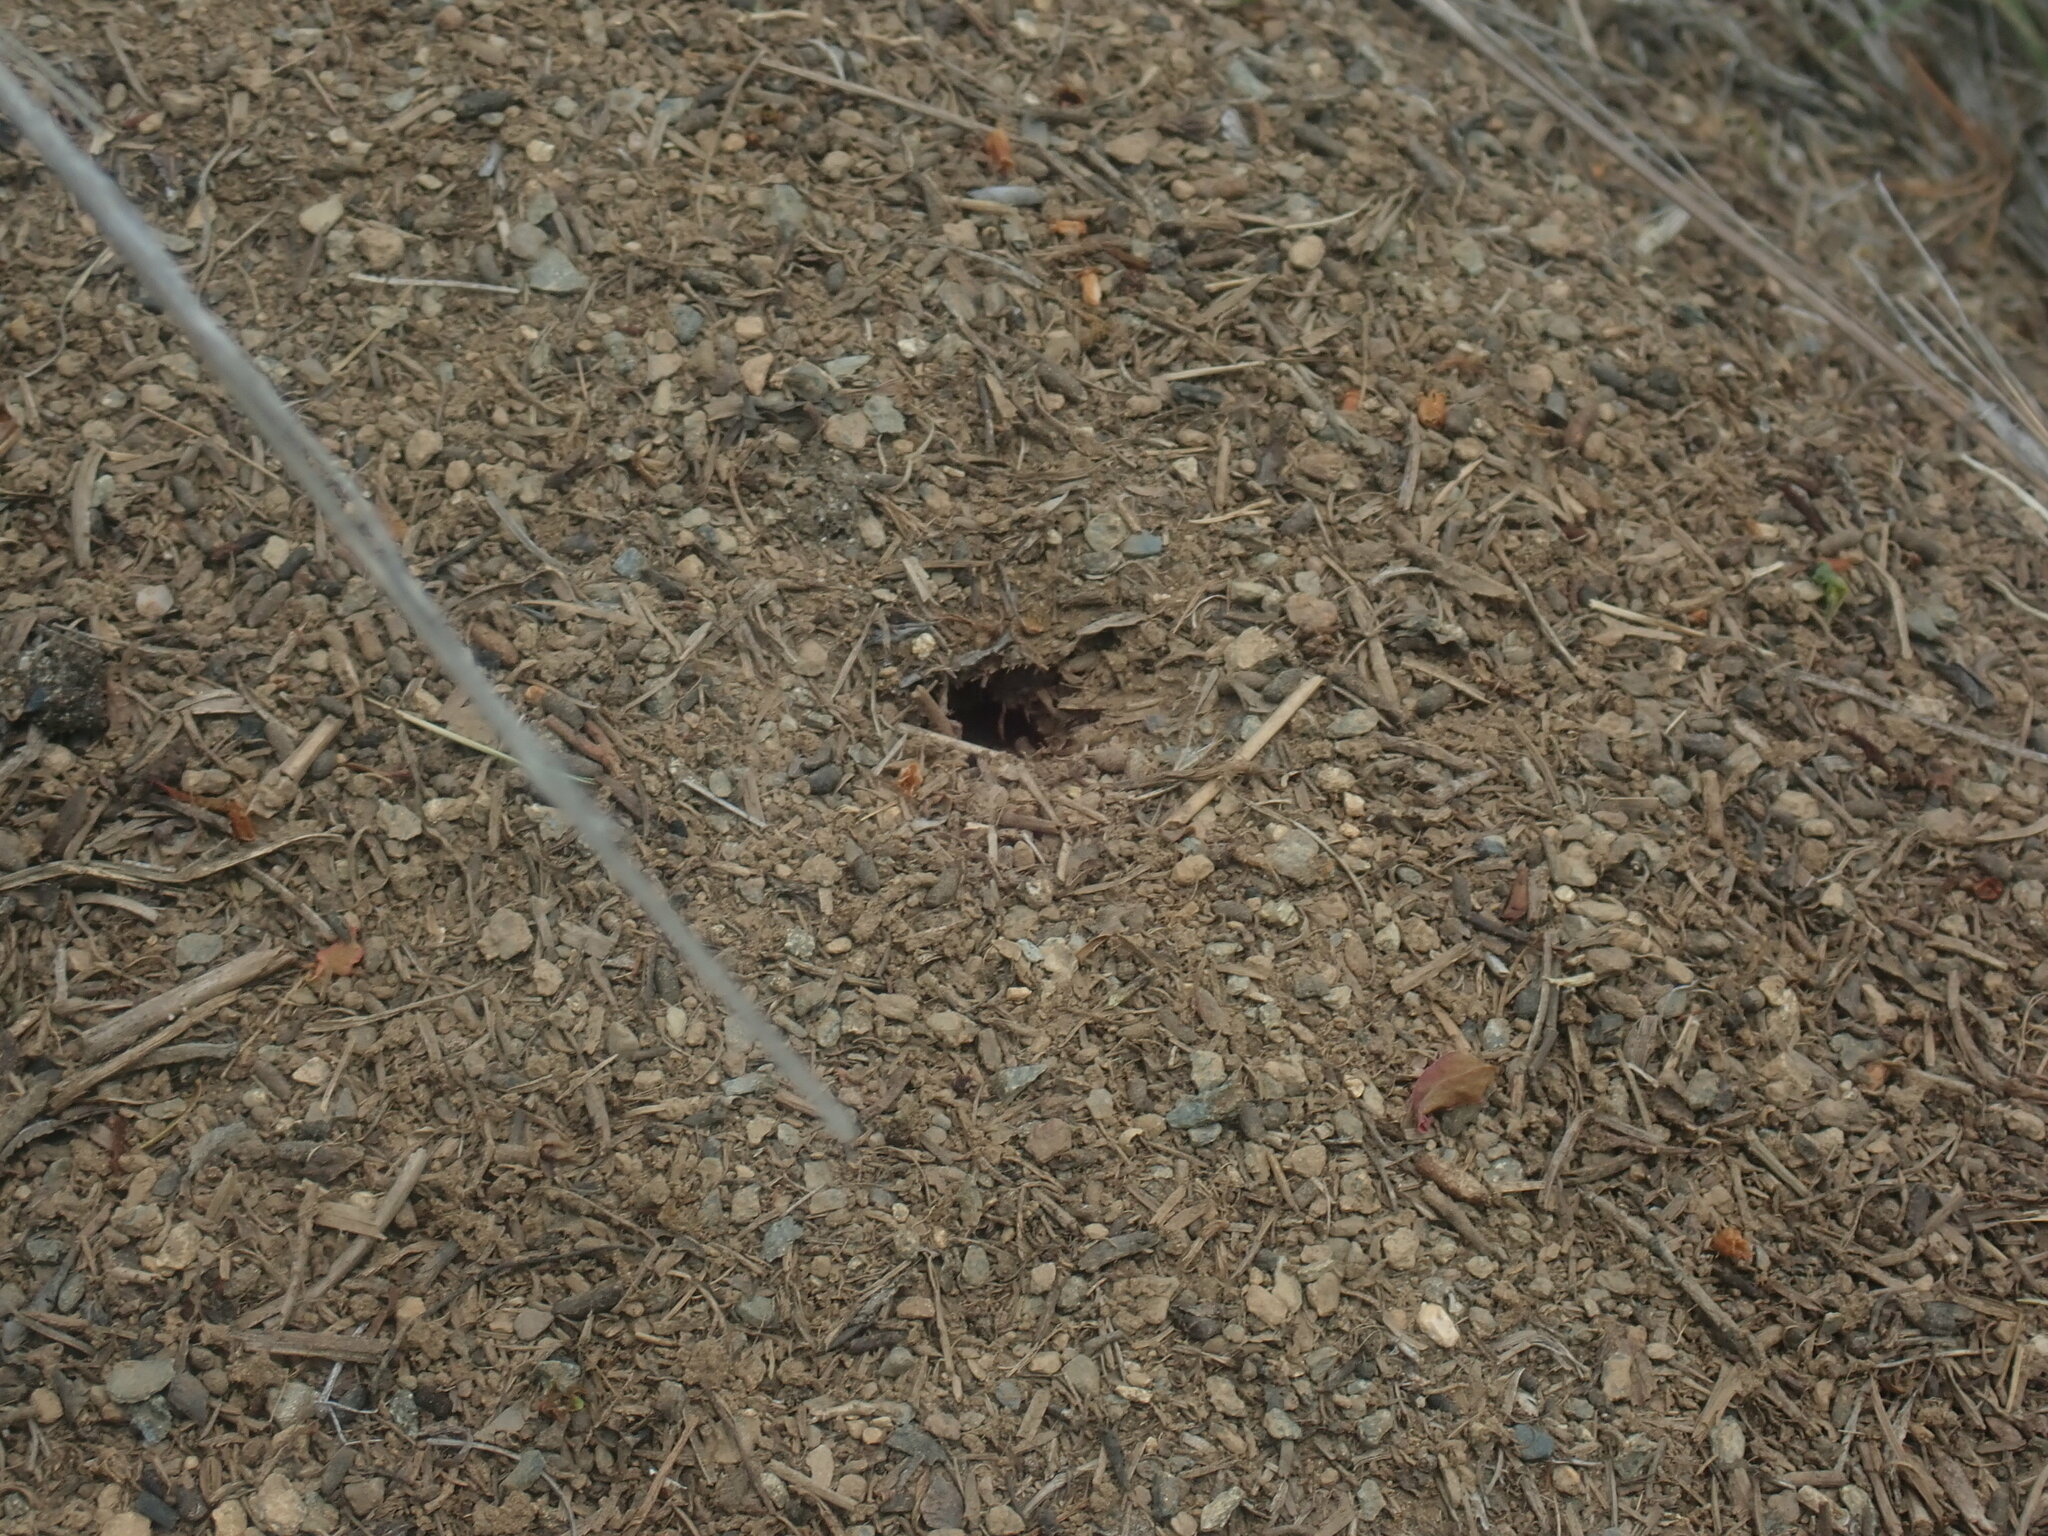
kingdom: Animalia
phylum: Arthropoda
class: Insecta
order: Hymenoptera
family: Formicidae
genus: Formica
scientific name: Formica exsectoides
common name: Allegheny mound ant
